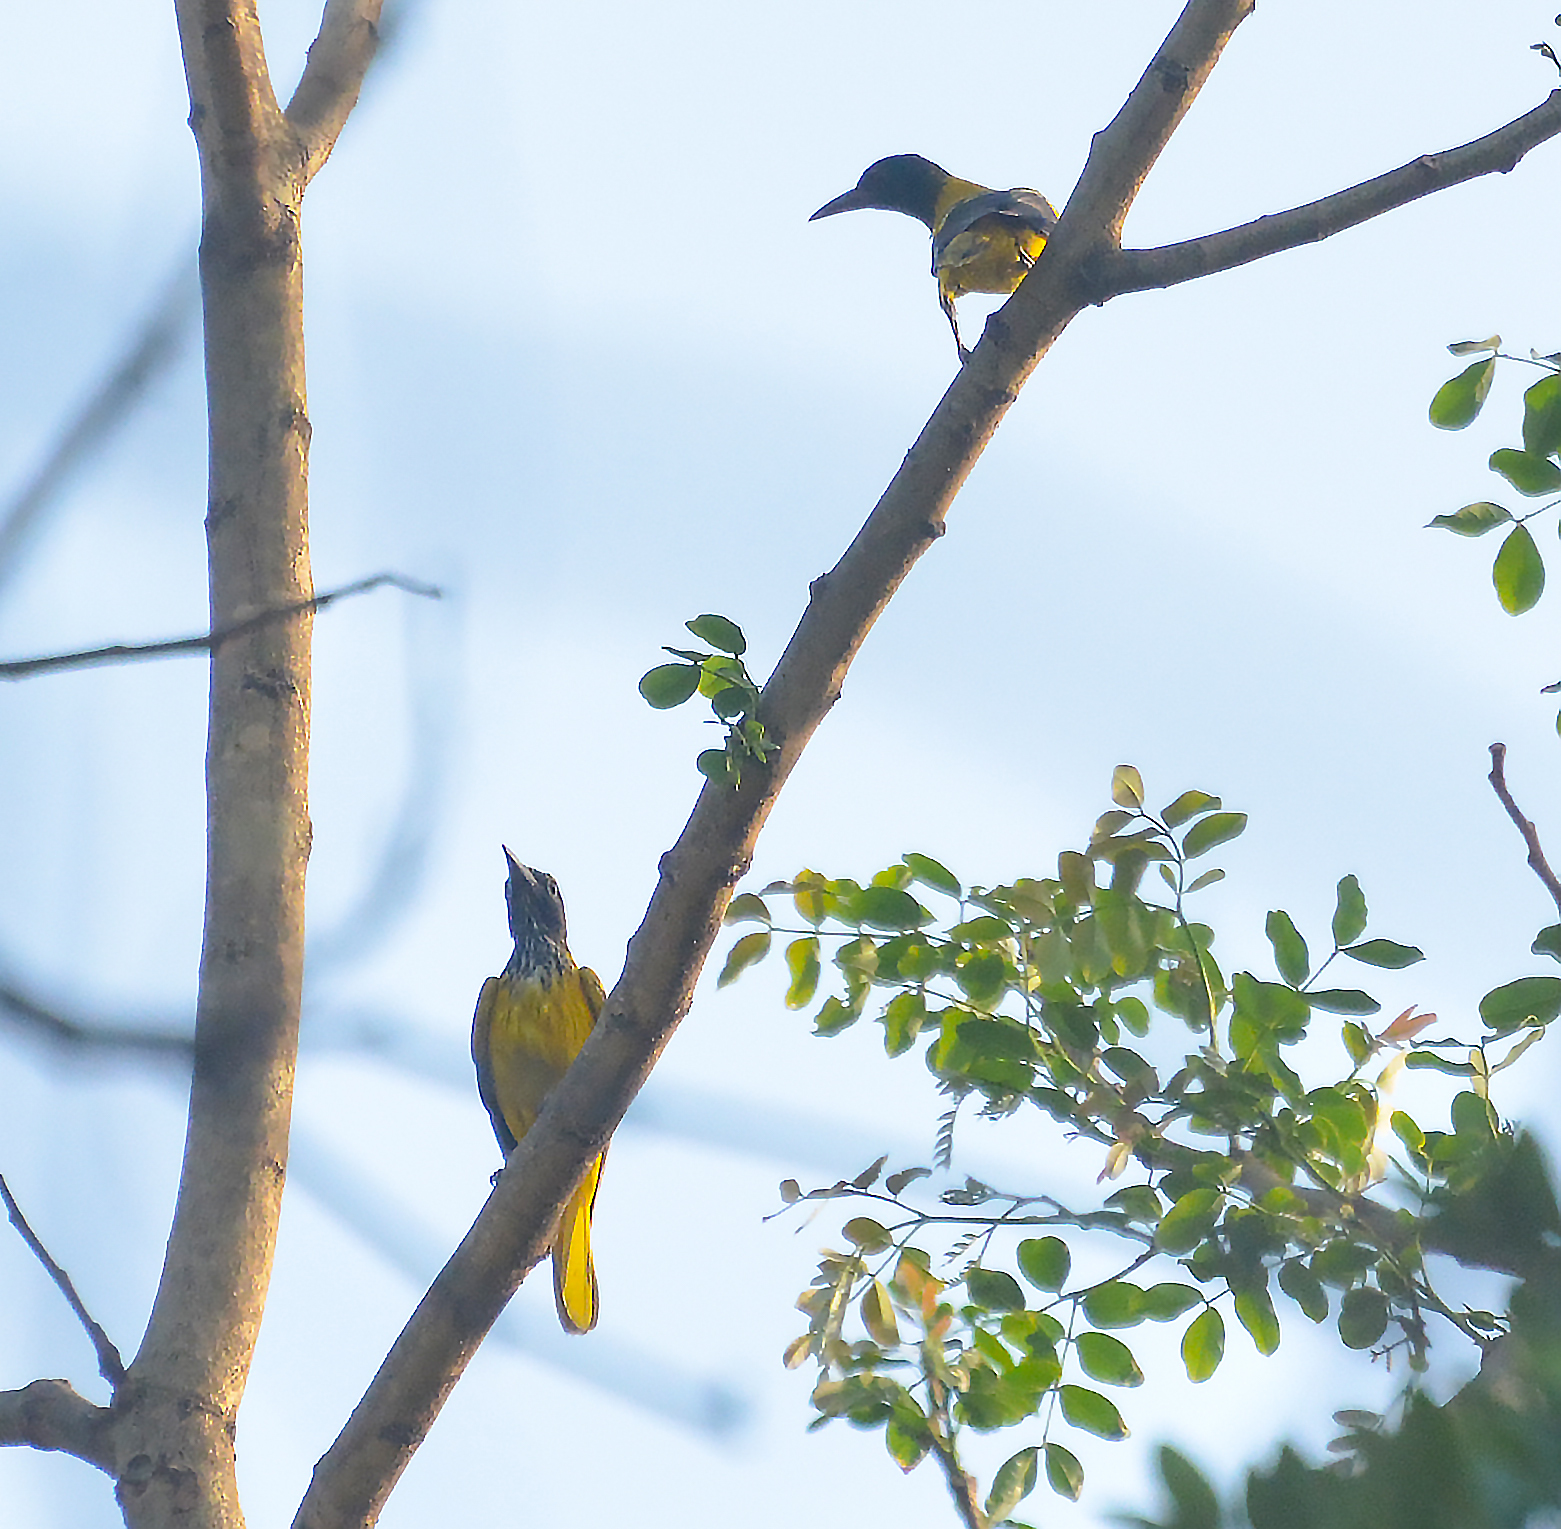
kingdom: Animalia
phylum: Chordata
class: Aves
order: Passeriformes
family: Oriolidae
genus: Oriolus
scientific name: Oriolus xanthornus
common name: Black-hooded oriole
